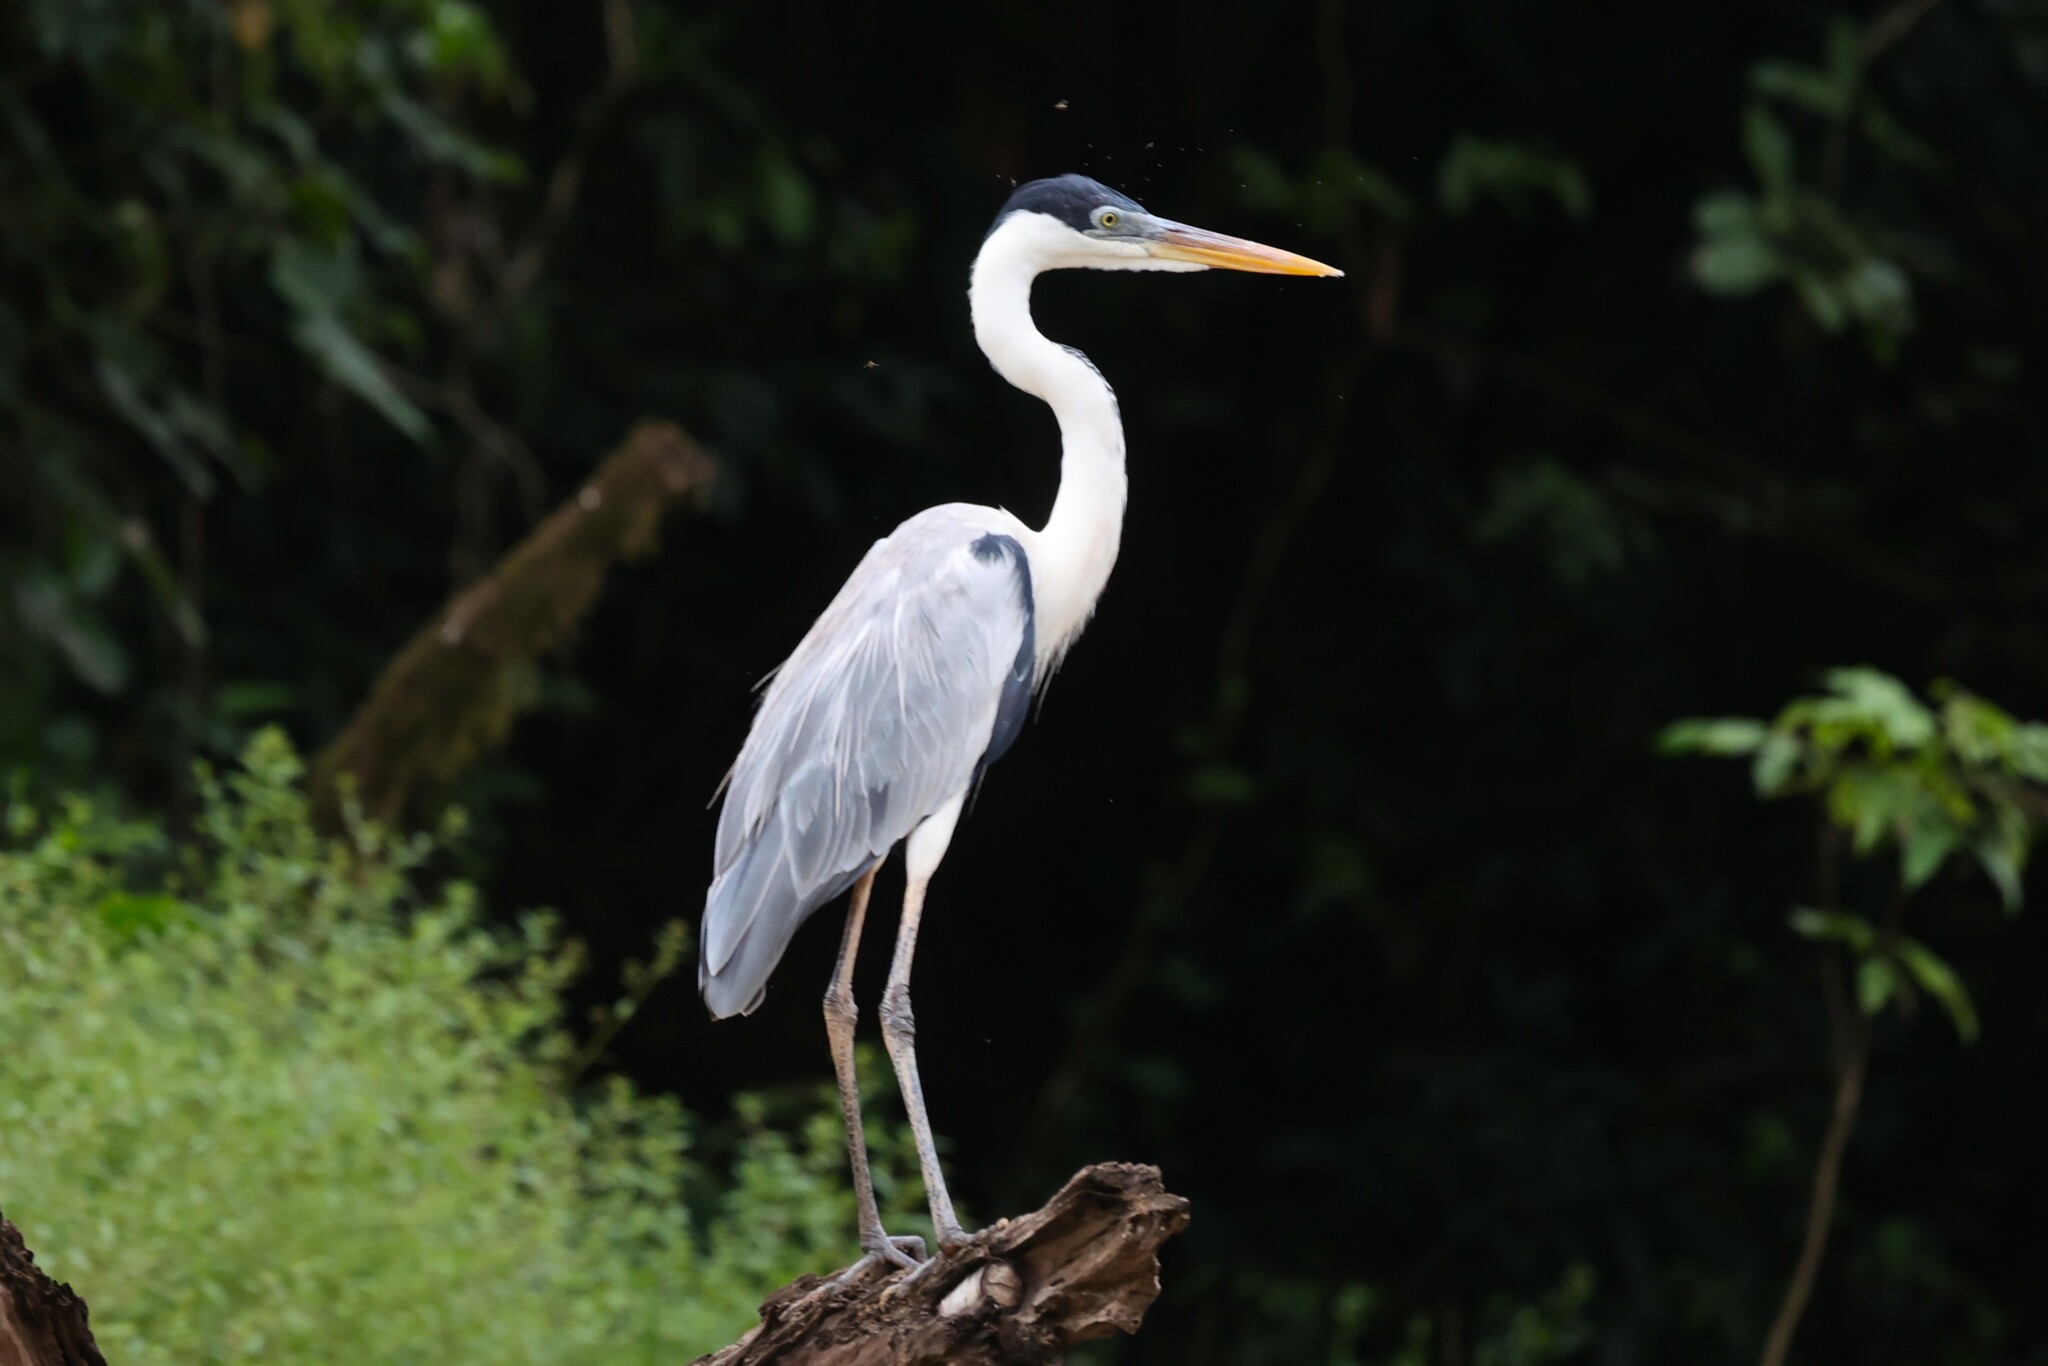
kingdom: Animalia
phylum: Chordata
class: Aves
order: Pelecaniformes
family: Ardeidae
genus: Ardea
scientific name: Ardea cocoi
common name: Cocoi heron
